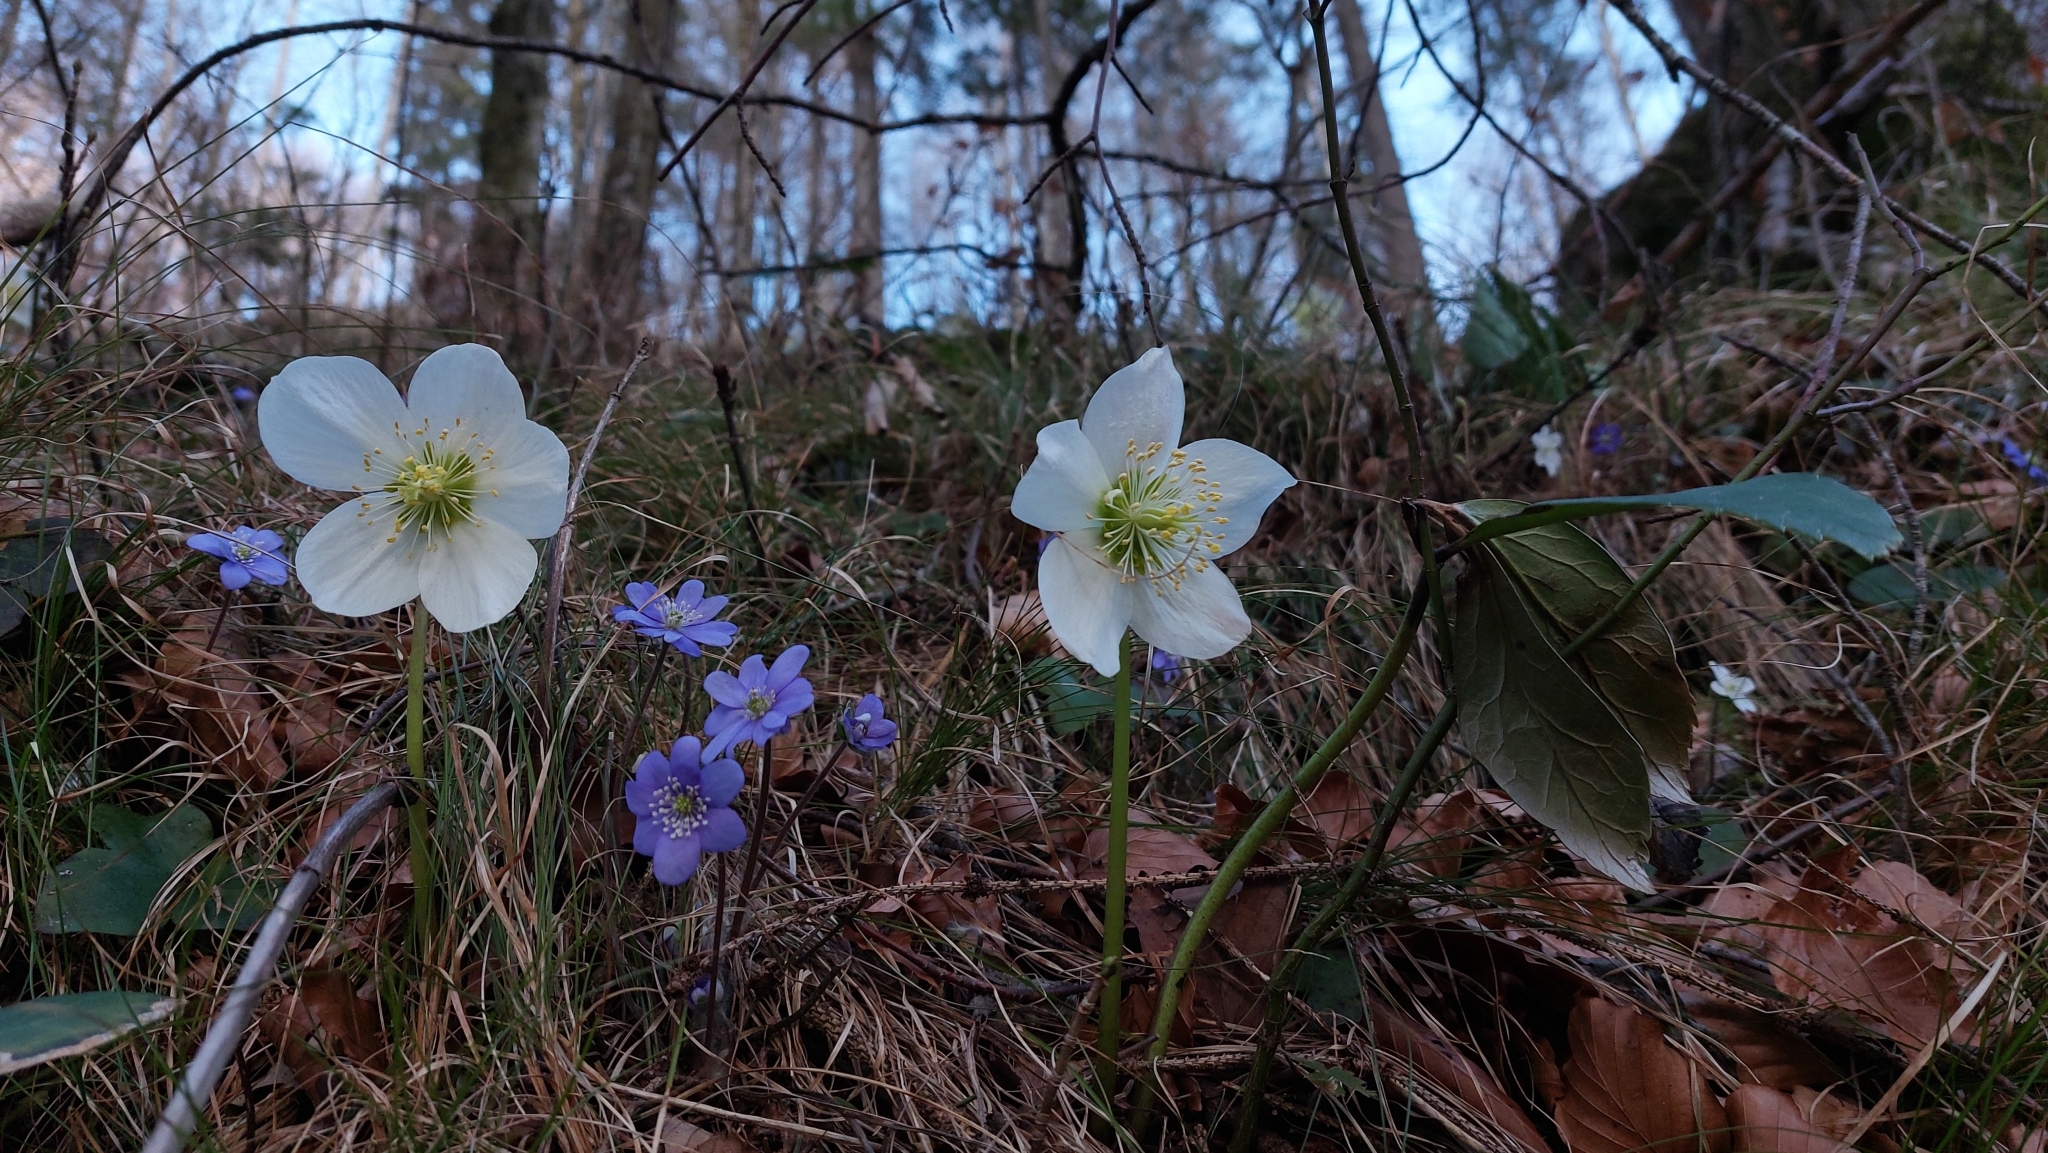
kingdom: Plantae
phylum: Tracheophyta
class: Magnoliopsida
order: Ranunculales
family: Ranunculaceae
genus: Helleborus
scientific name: Helleborus niger
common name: Black hellebore
